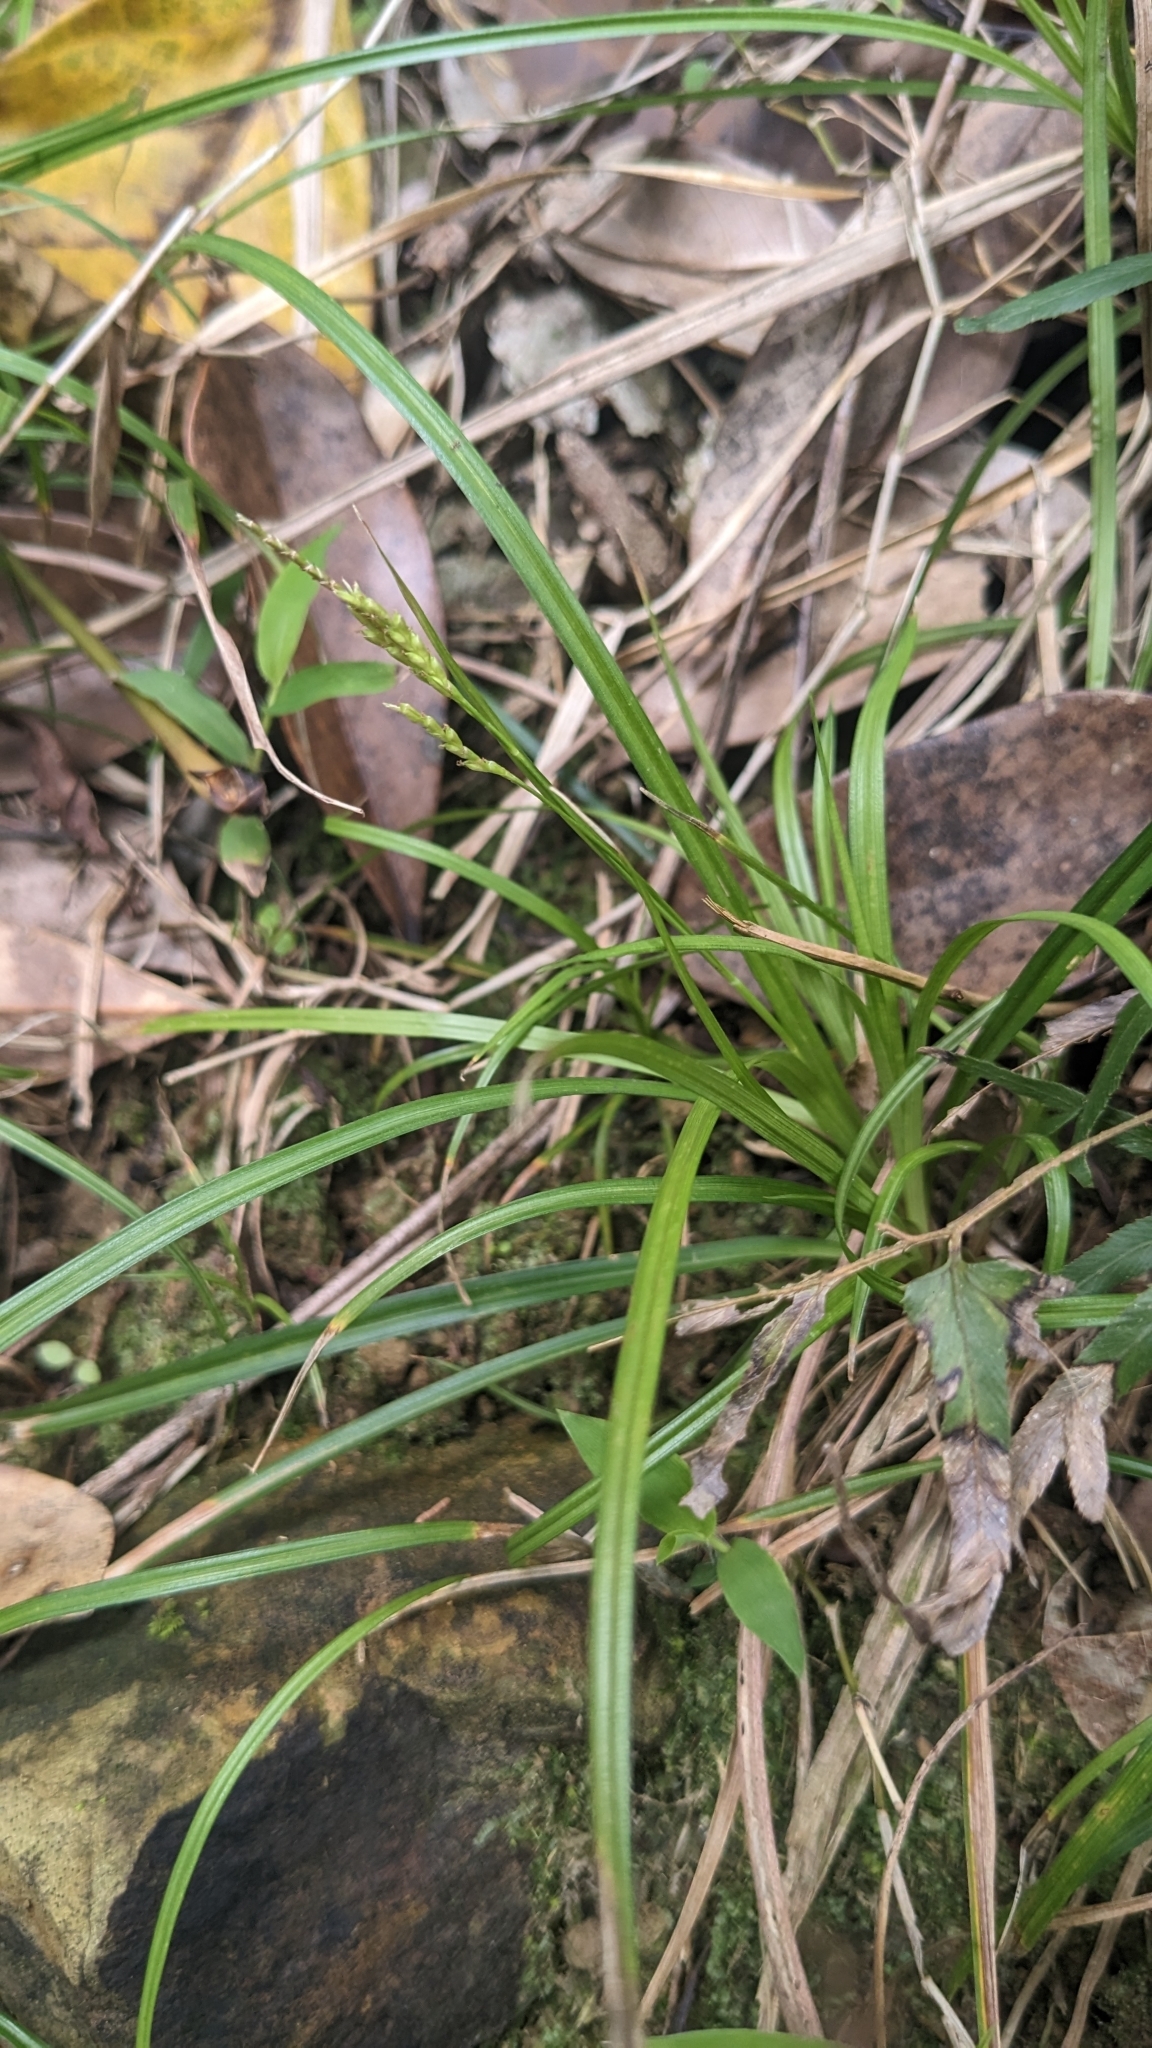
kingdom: Plantae
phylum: Tracheophyta
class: Liliopsida
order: Poales
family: Cyperaceae
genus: Carex
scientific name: Carex tristachya
